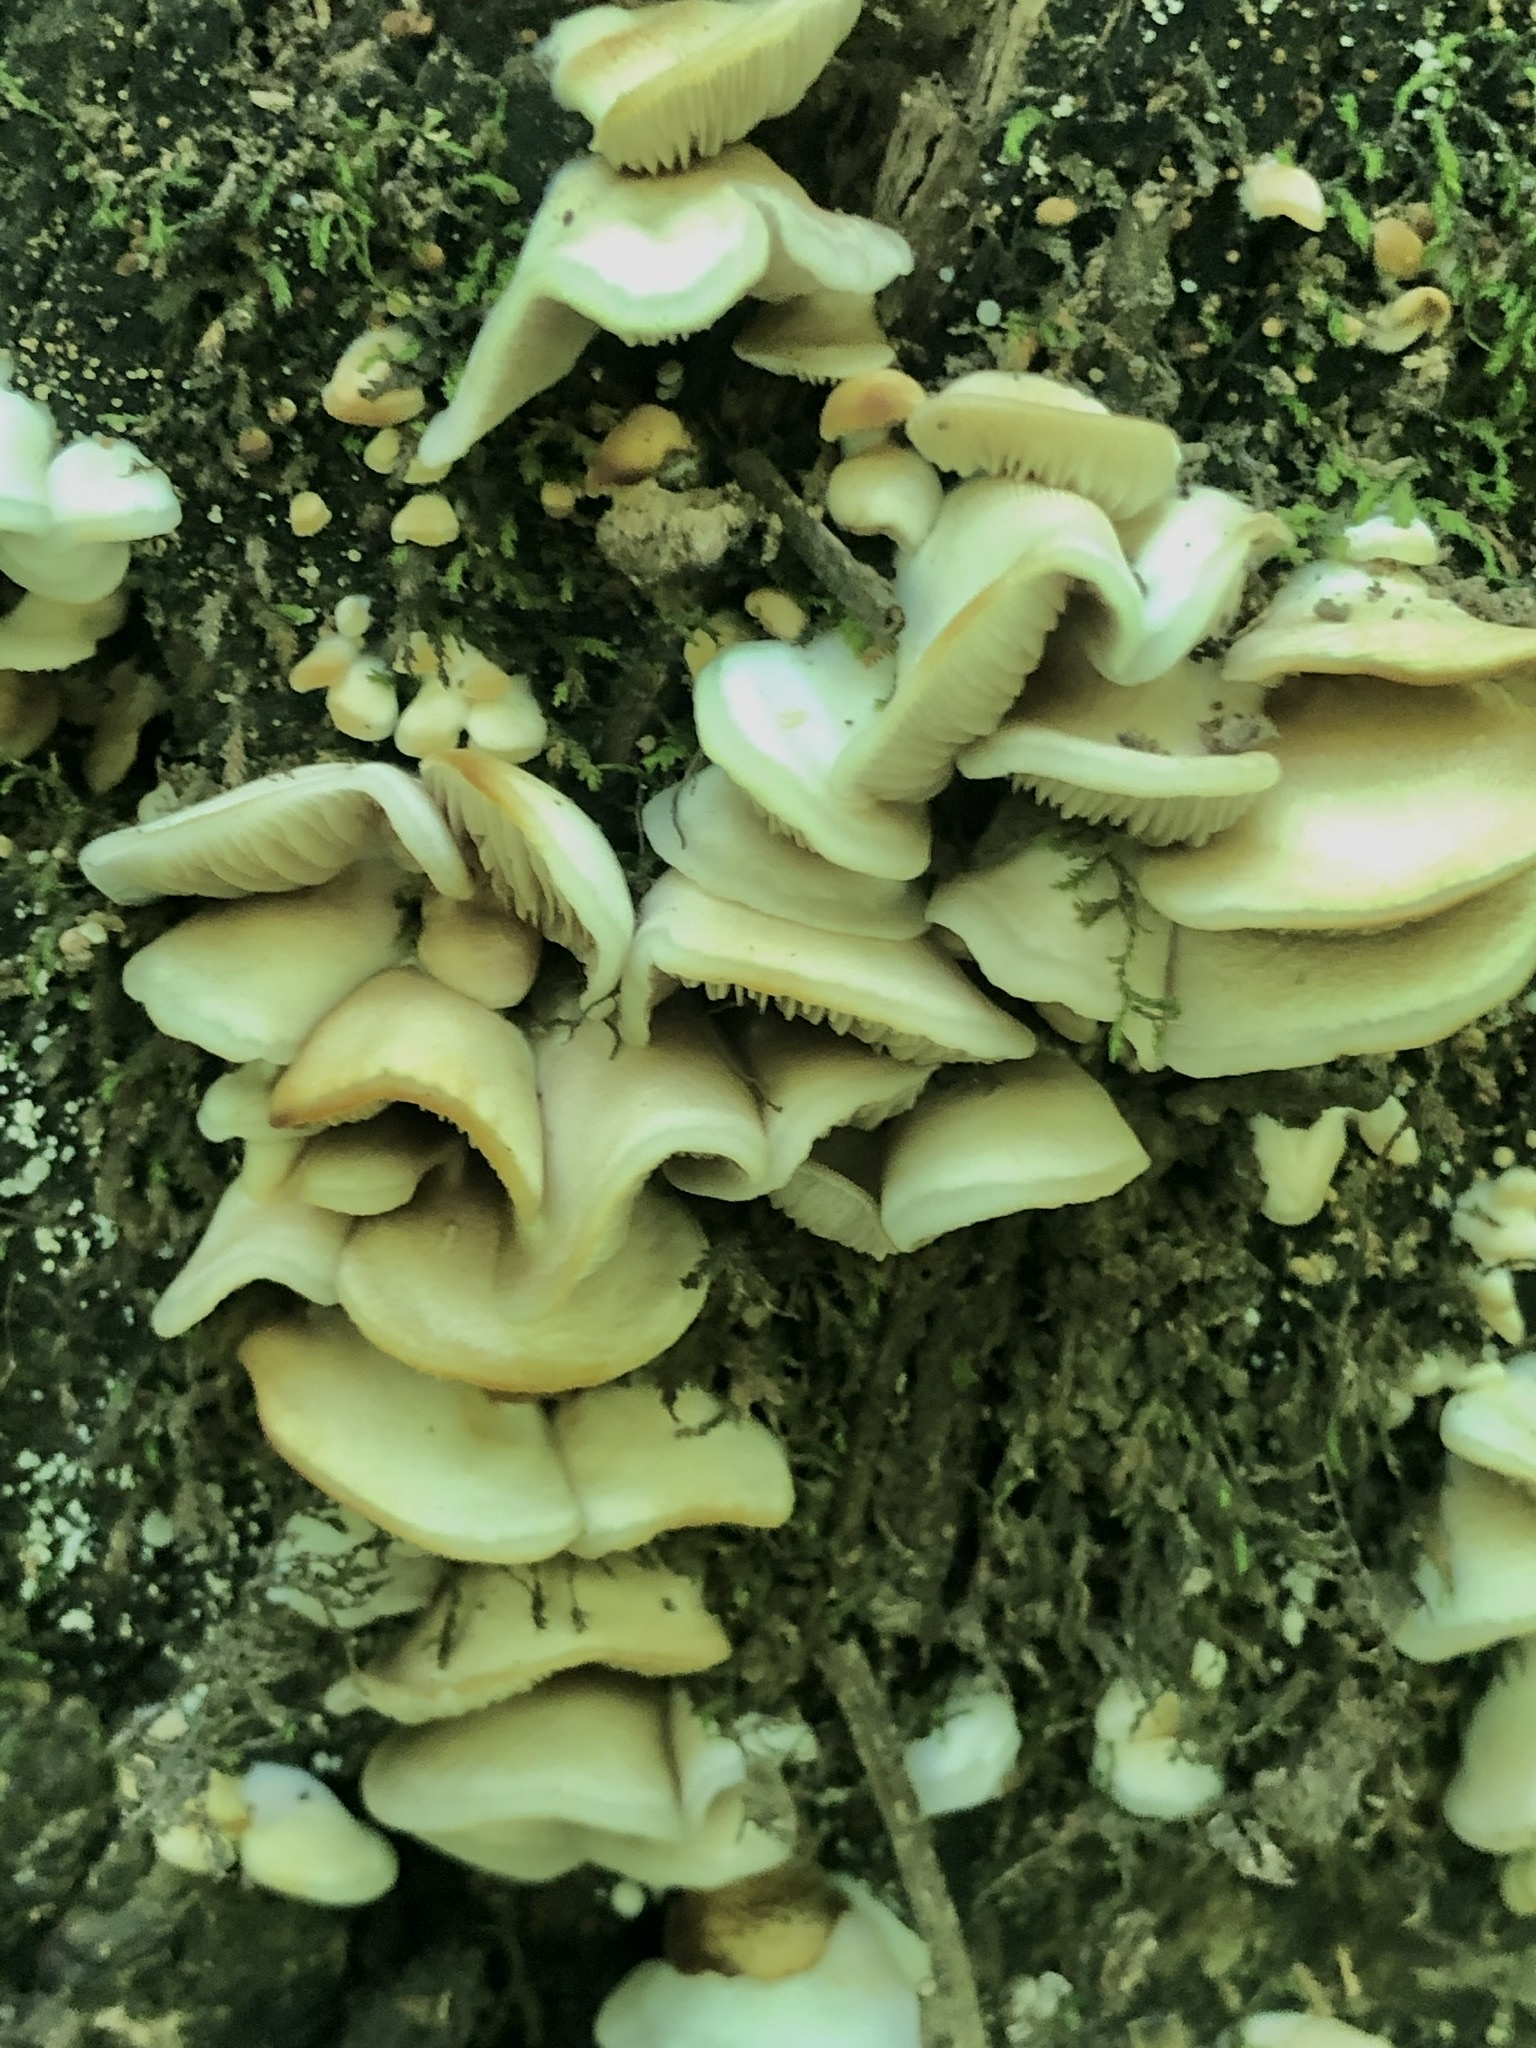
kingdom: Fungi
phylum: Basidiomycota
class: Agaricomycetes
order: Agaricales
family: Crepidotaceae
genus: Crepidotus
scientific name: Crepidotus applanatus
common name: Flat crep
